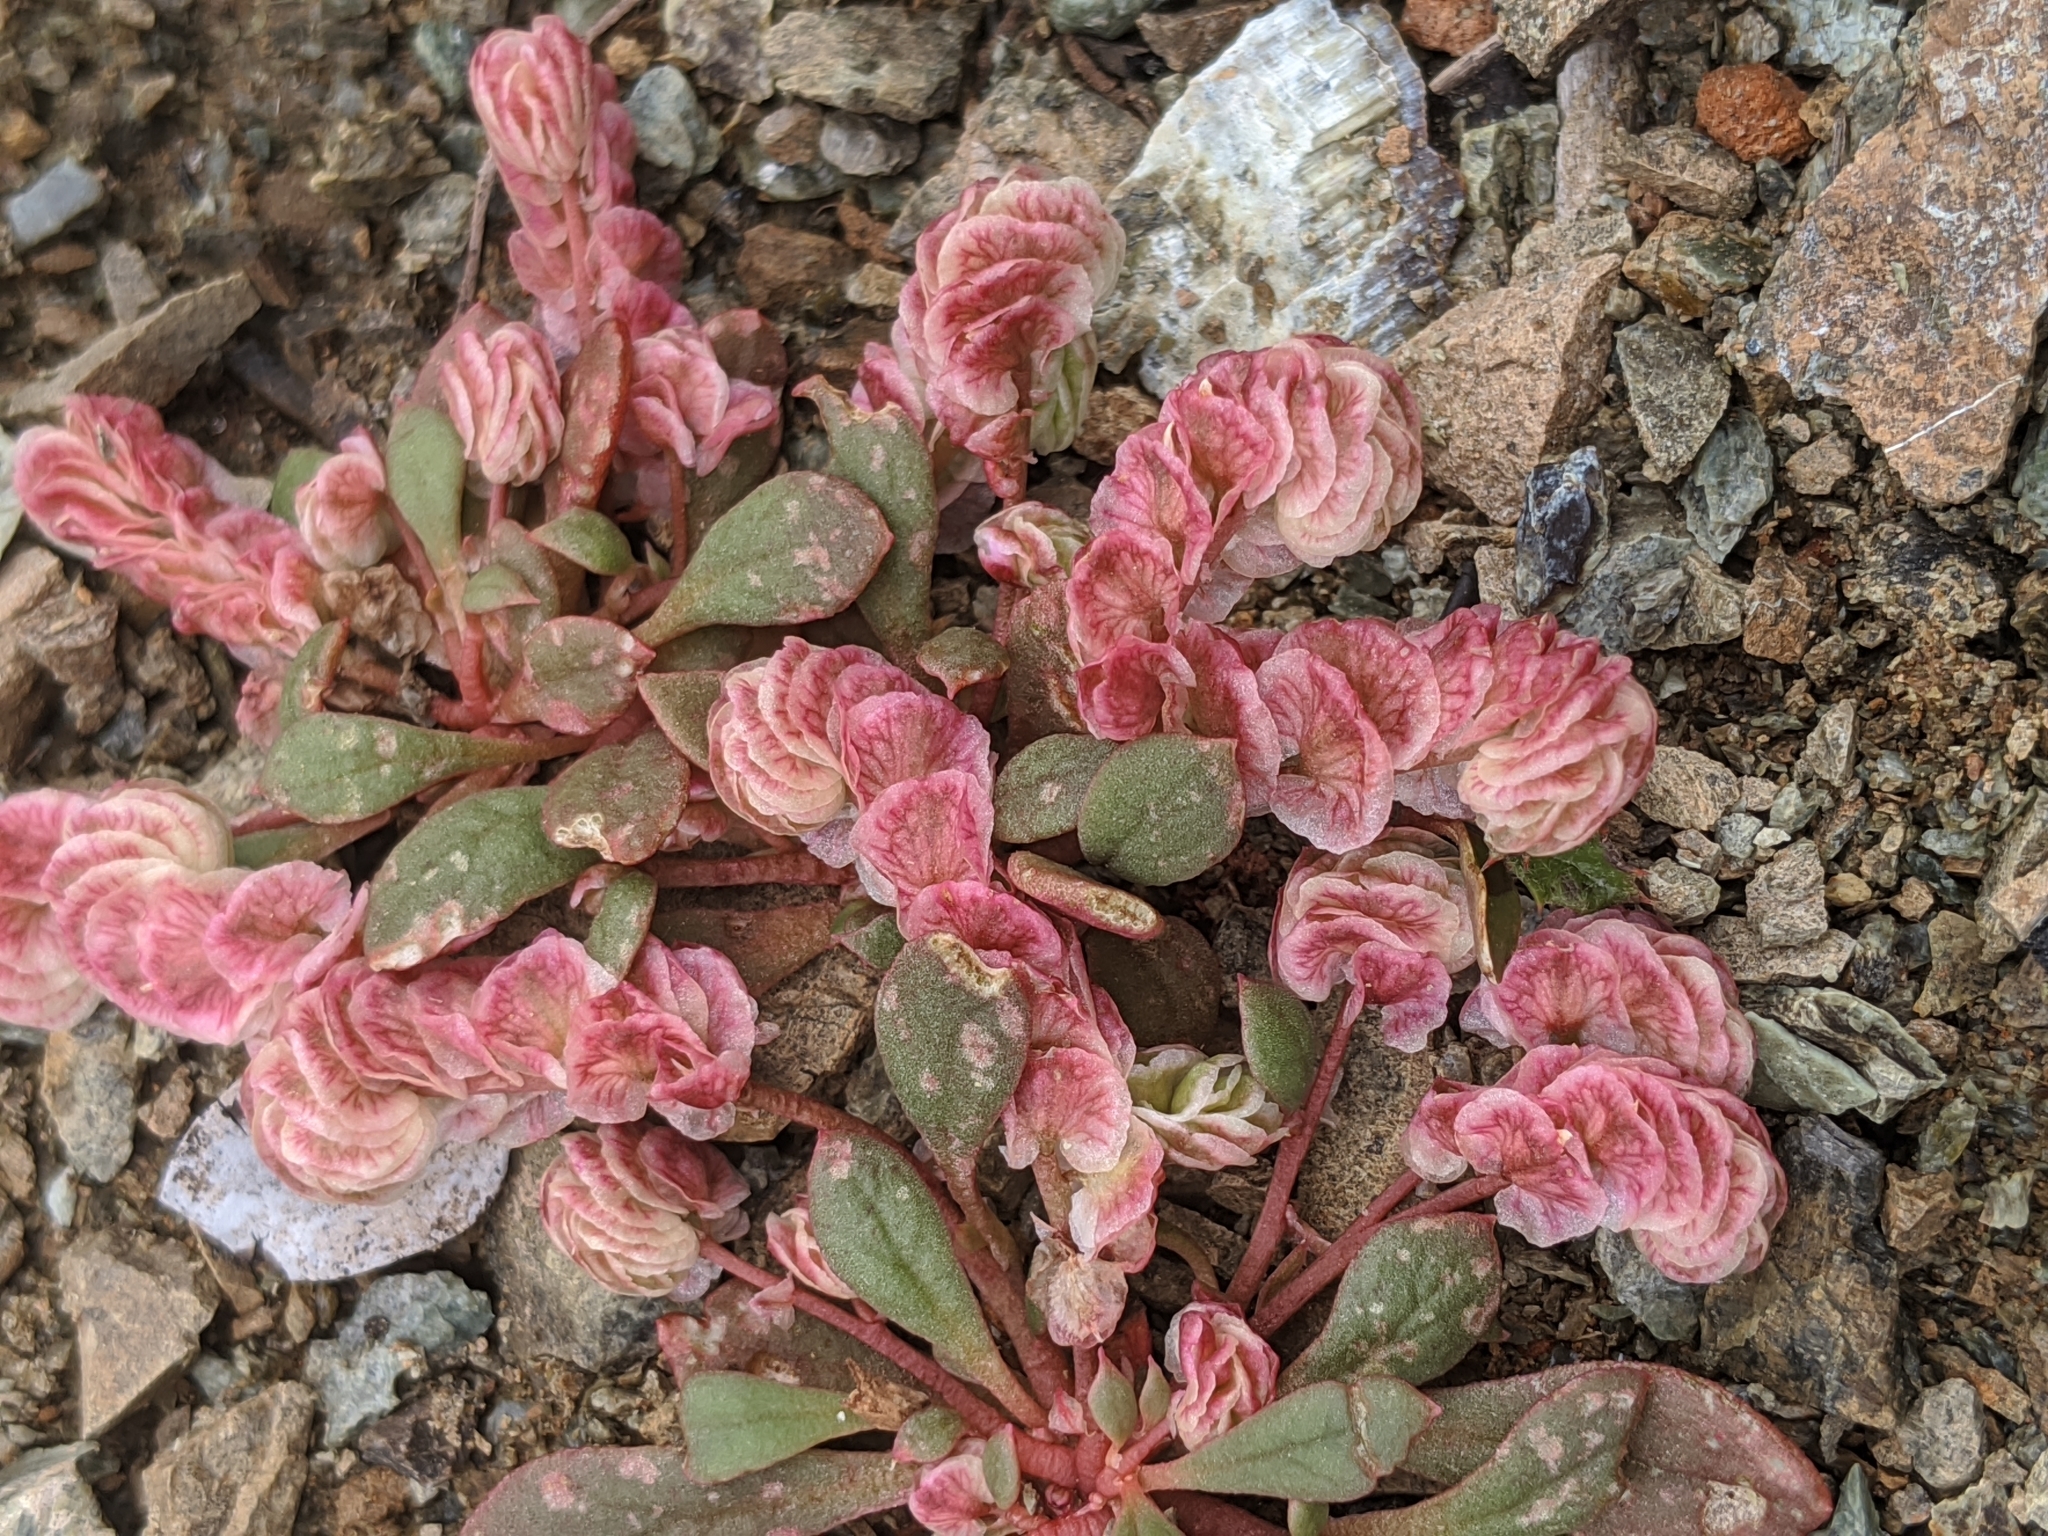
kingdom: Plantae
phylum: Tracheophyta
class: Magnoliopsida
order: Caryophyllales
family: Montiaceae
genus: Calyptridium
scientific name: Calyptridium quadripetalum
